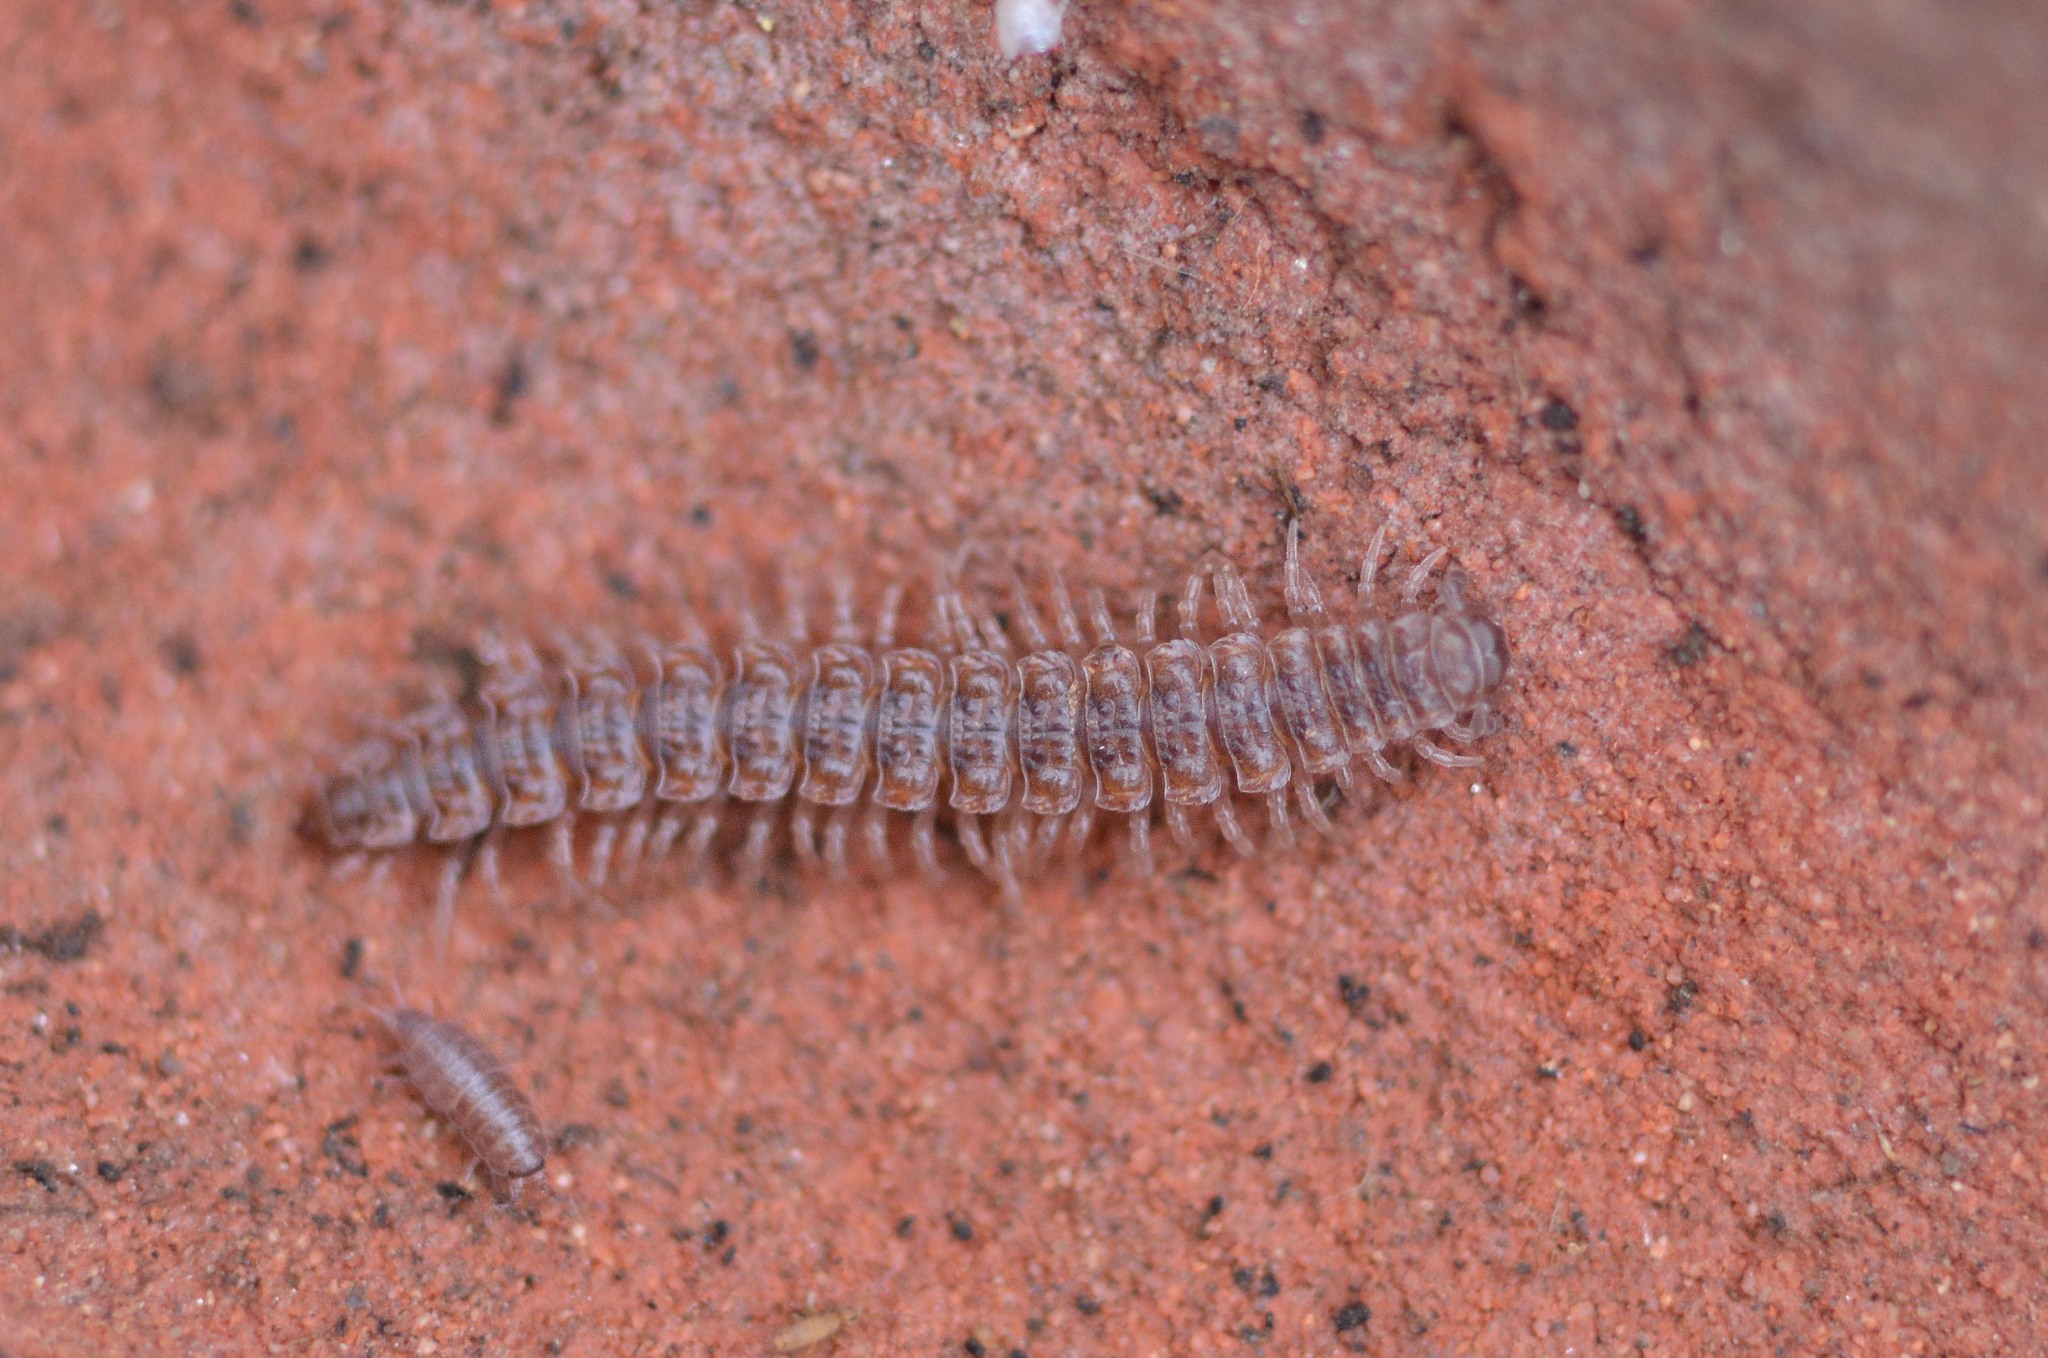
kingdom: Animalia
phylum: Arthropoda
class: Malacostraca
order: Isopoda
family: Trichoniscidae
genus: Trichoniscus
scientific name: Trichoniscus
